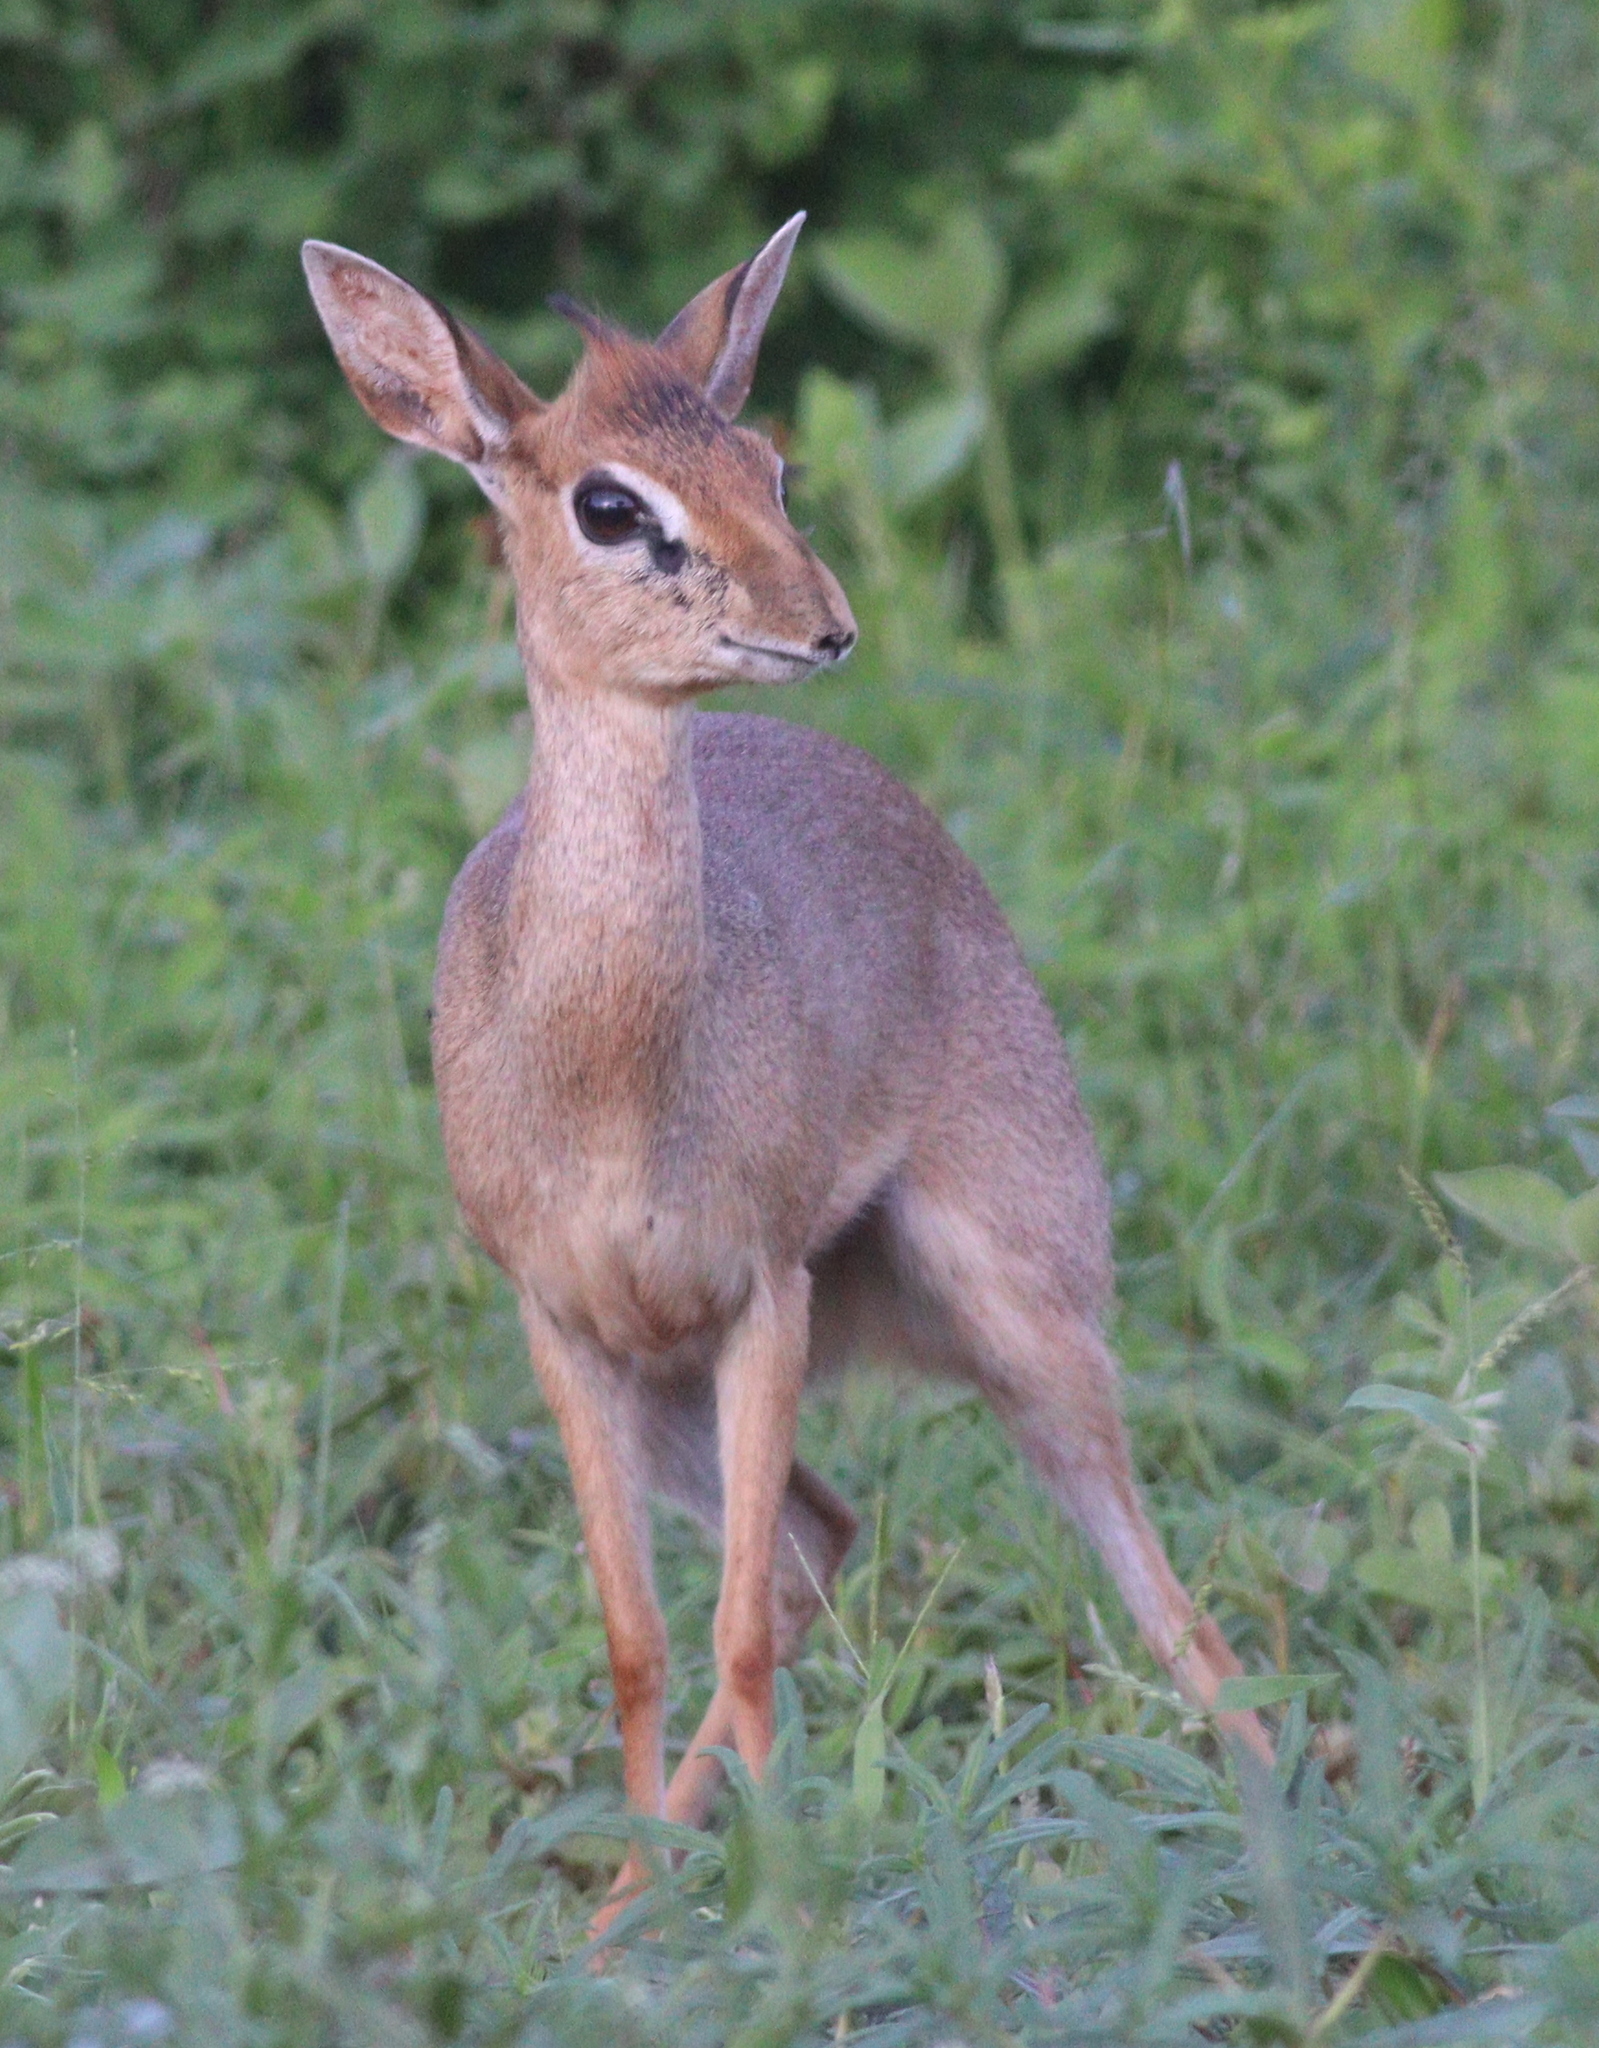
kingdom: Animalia
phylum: Chordata
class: Mammalia
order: Artiodactyla
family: Bovidae
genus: Madoqua
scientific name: Madoqua kirkii
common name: Kirk's dik-dik
